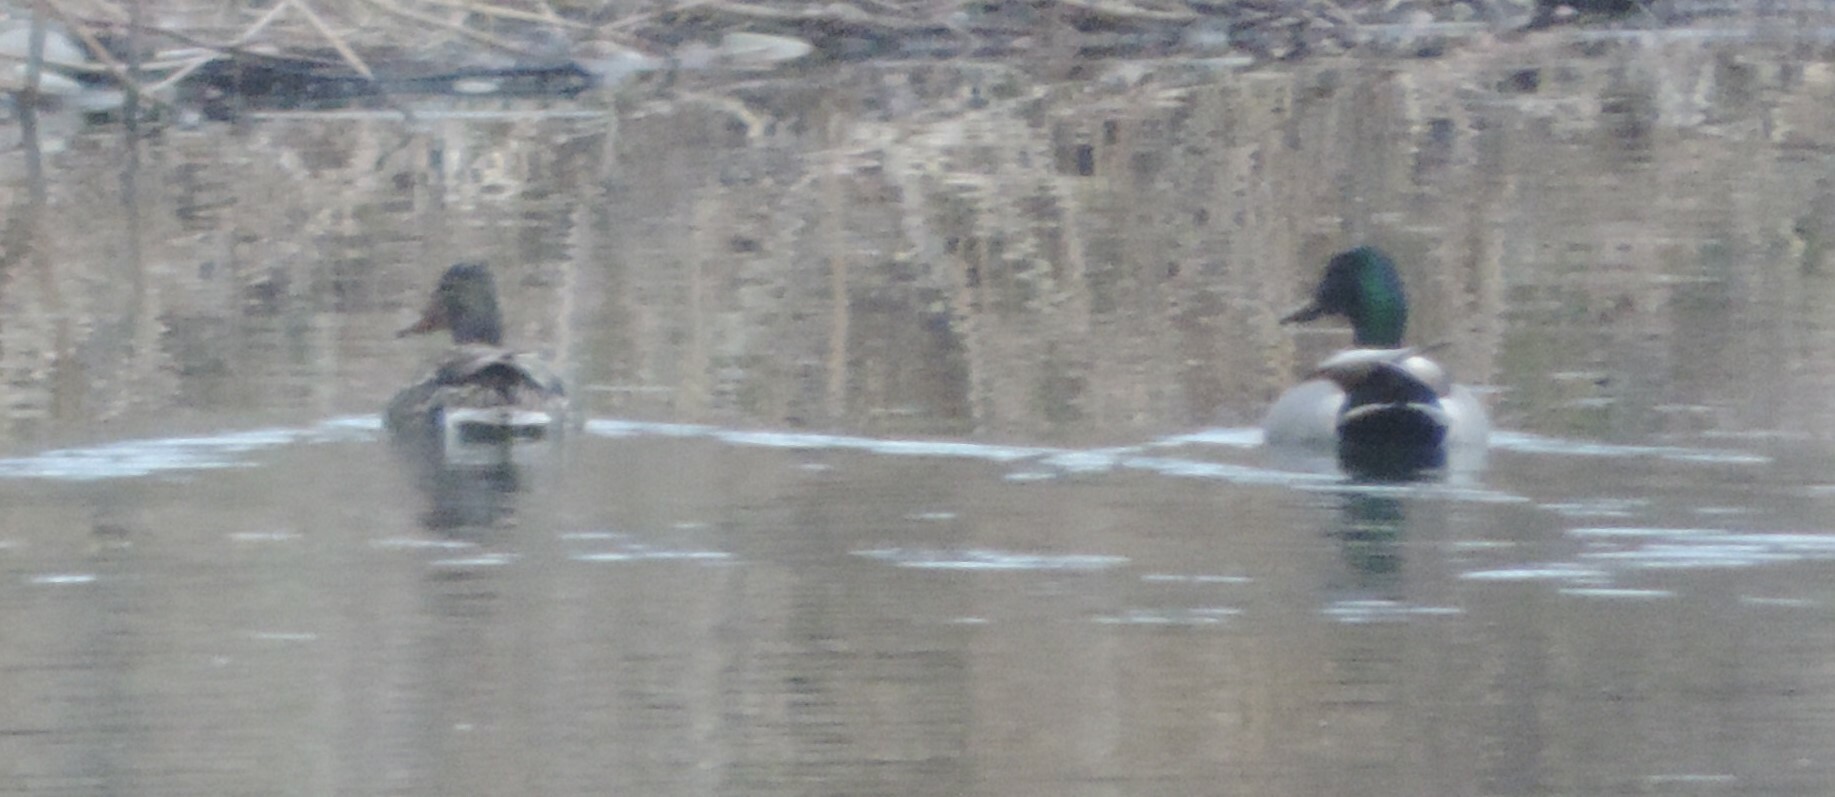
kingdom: Animalia
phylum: Chordata
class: Aves
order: Anseriformes
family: Anatidae
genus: Anas
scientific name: Anas platyrhynchos
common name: Mallard
